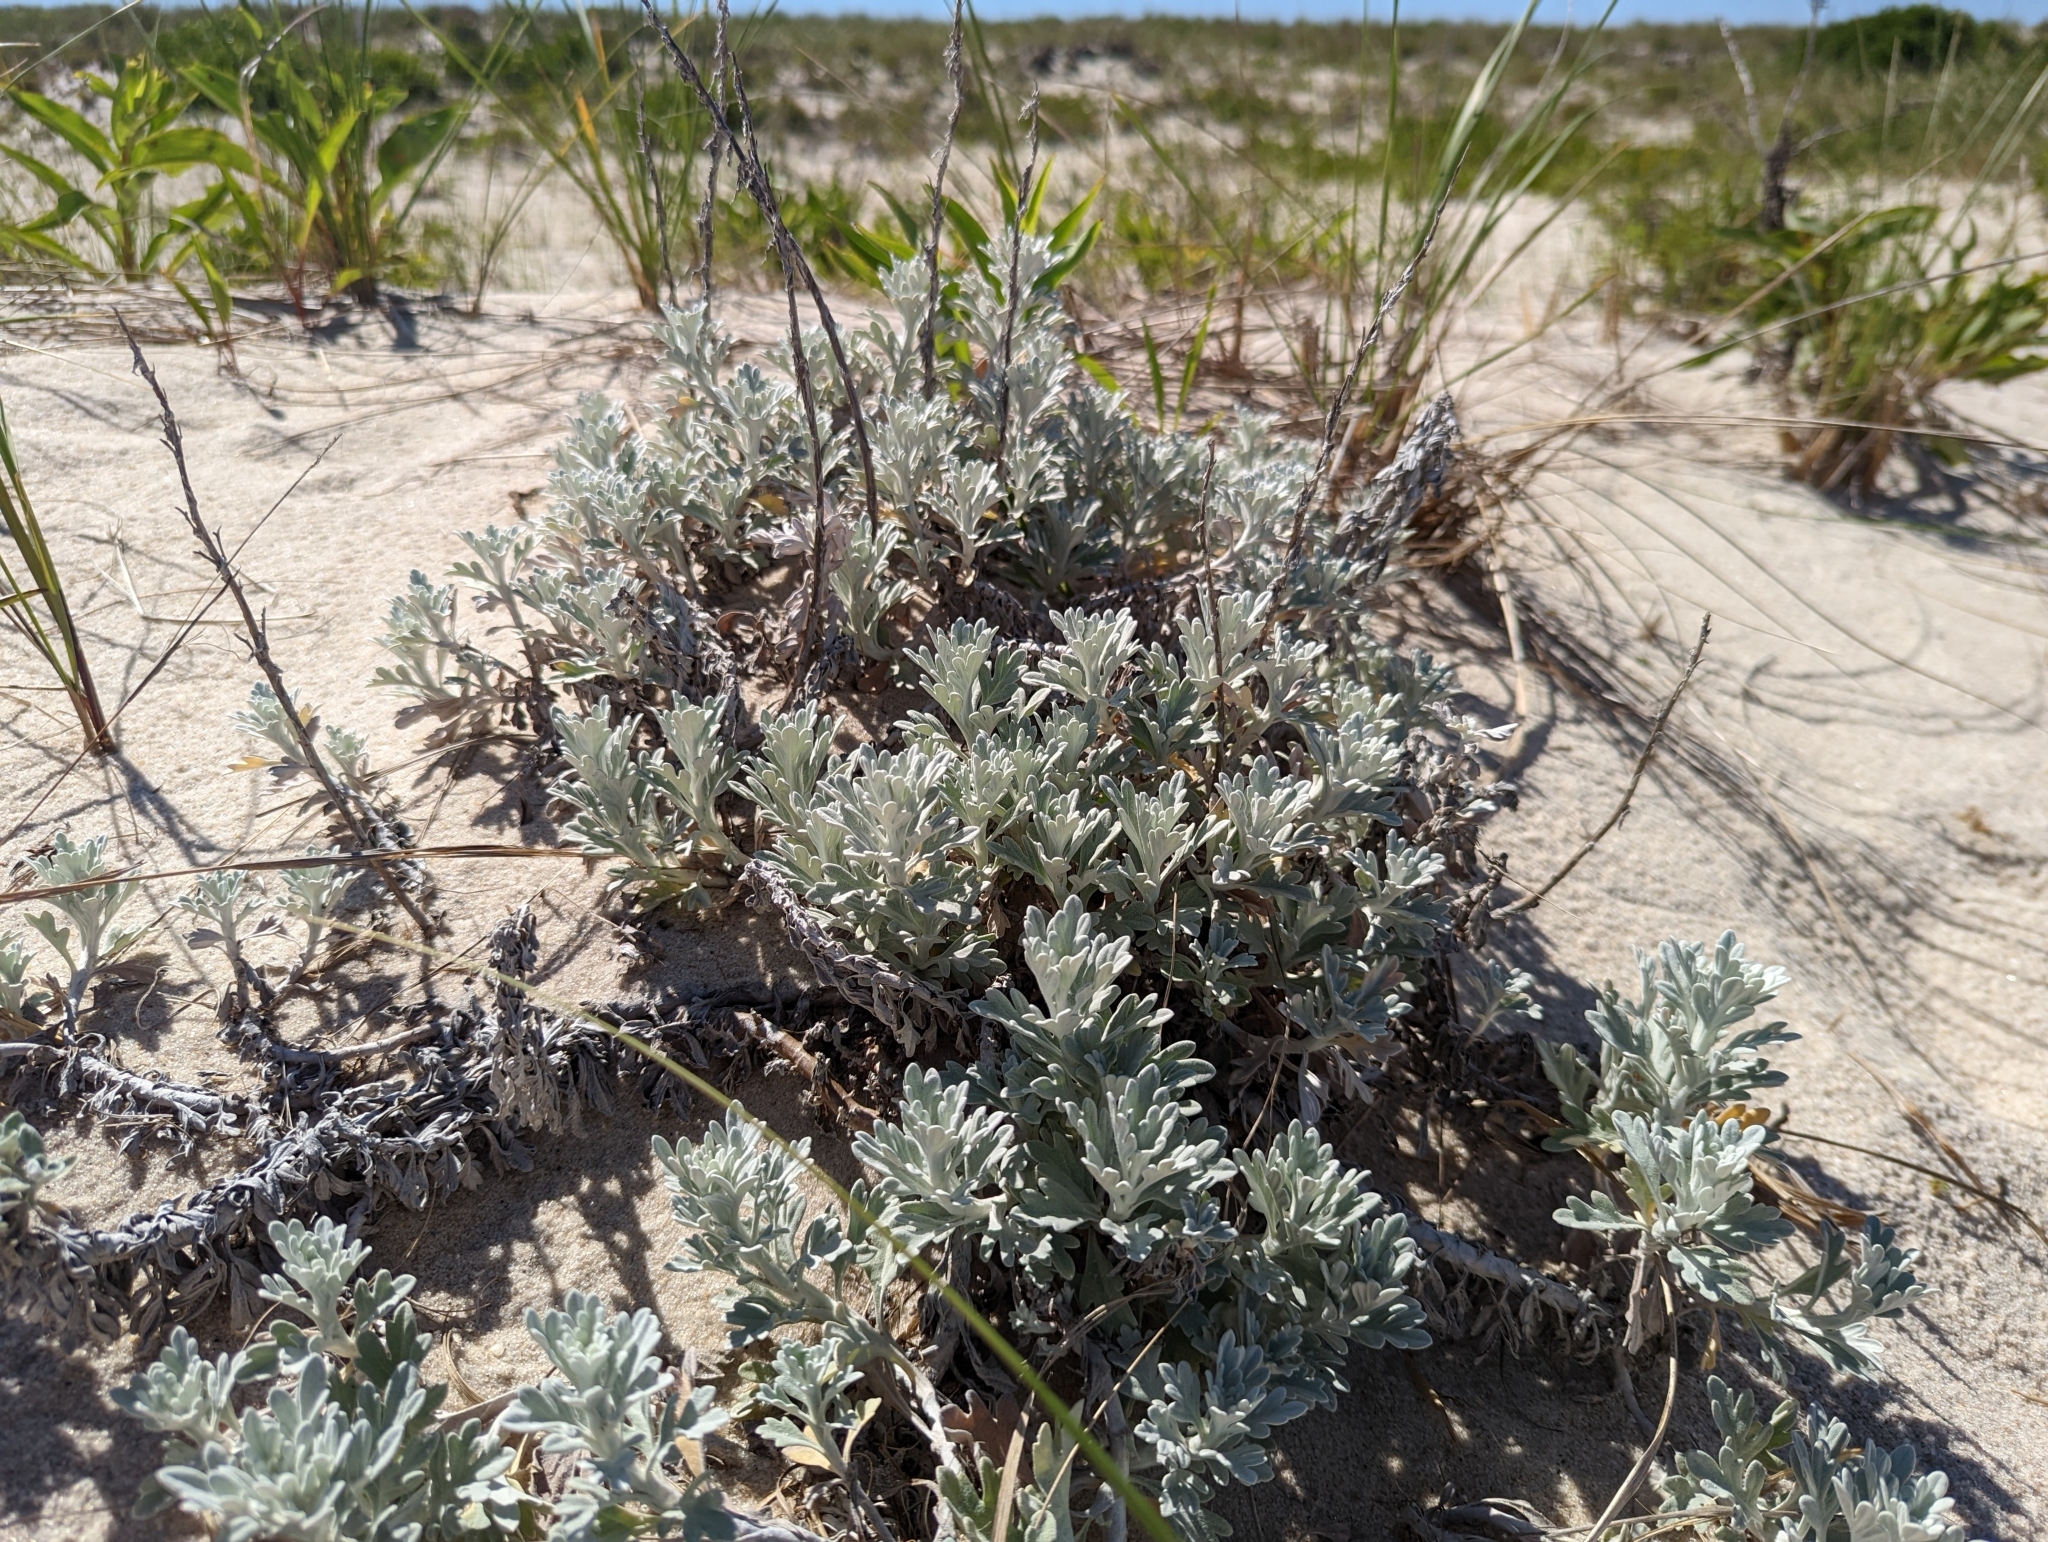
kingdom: Plantae
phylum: Tracheophyta
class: Magnoliopsida
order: Asterales
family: Asteraceae
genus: Artemisia
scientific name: Artemisia stelleriana
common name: Beach wormwood
